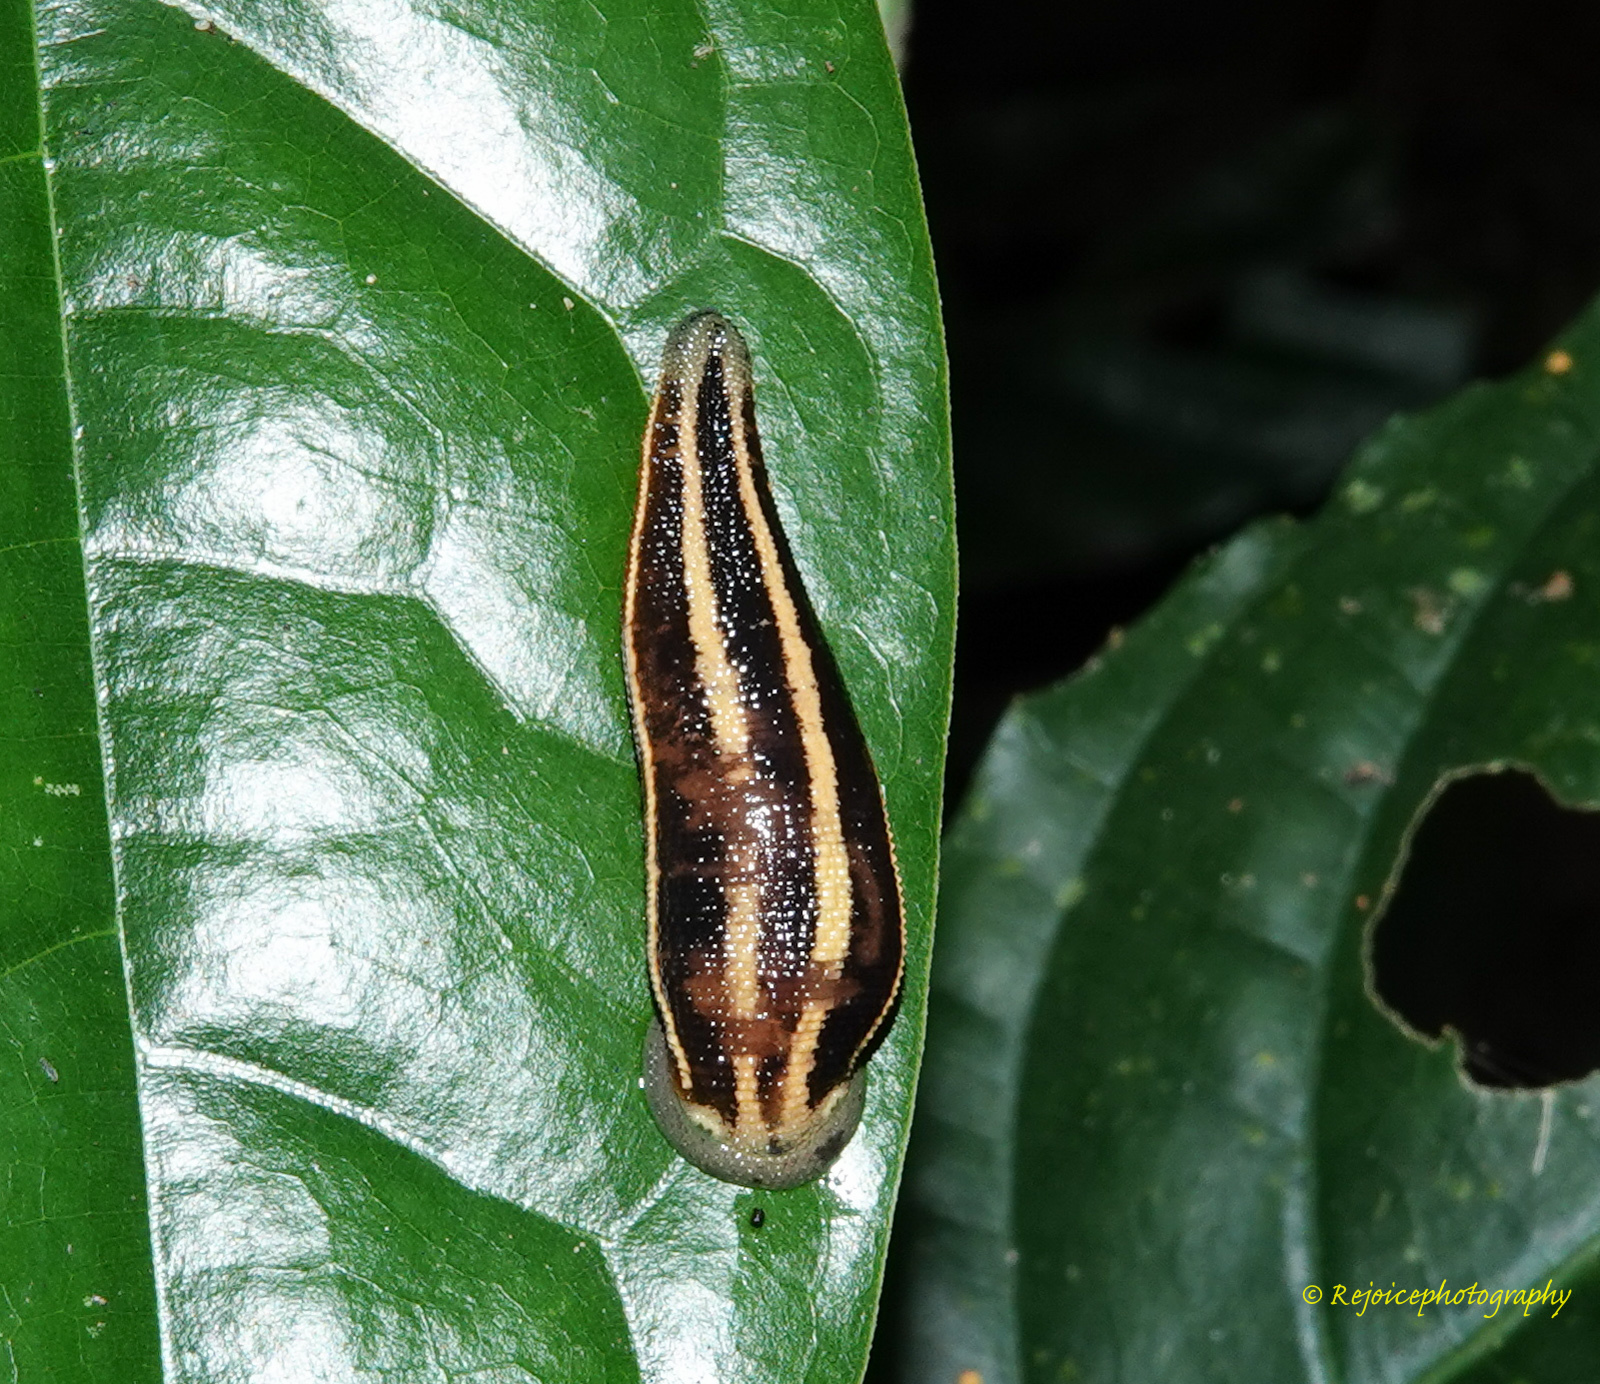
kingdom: Animalia
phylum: Annelida
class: Clitellata
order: Arhynchobdellida
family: Haemadipsidae
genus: Haemadipsa
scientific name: Haemadipsa ornata
